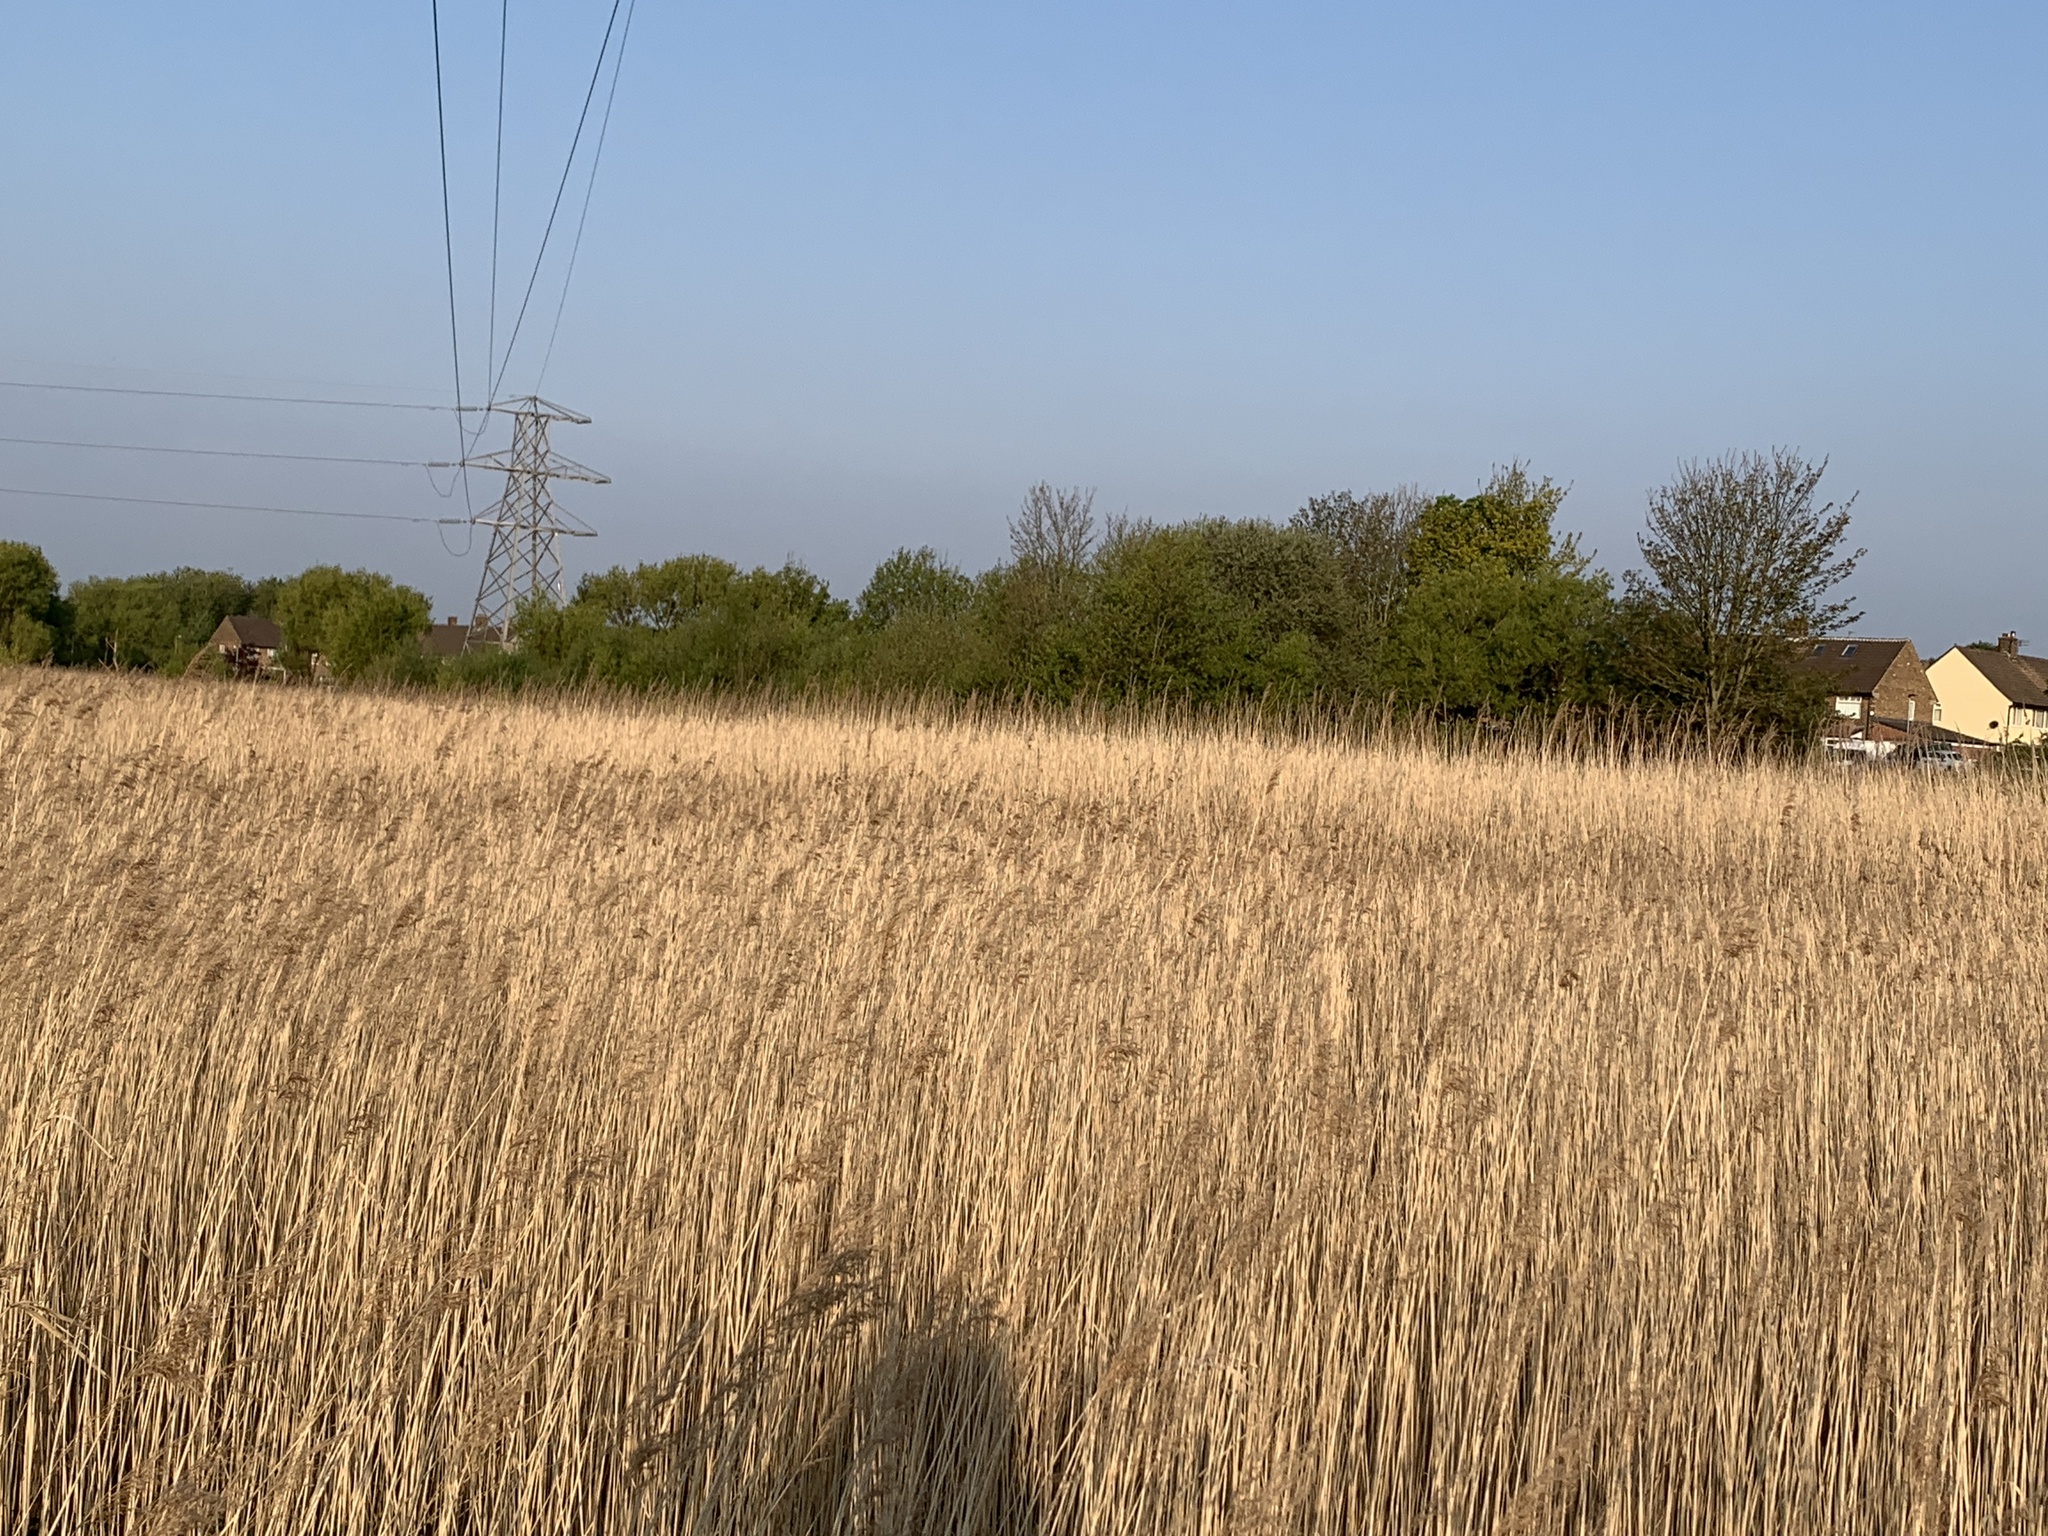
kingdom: Plantae
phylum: Tracheophyta
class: Liliopsida
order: Poales
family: Poaceae
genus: Phragmites
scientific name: Phragmites australis
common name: Common reed
